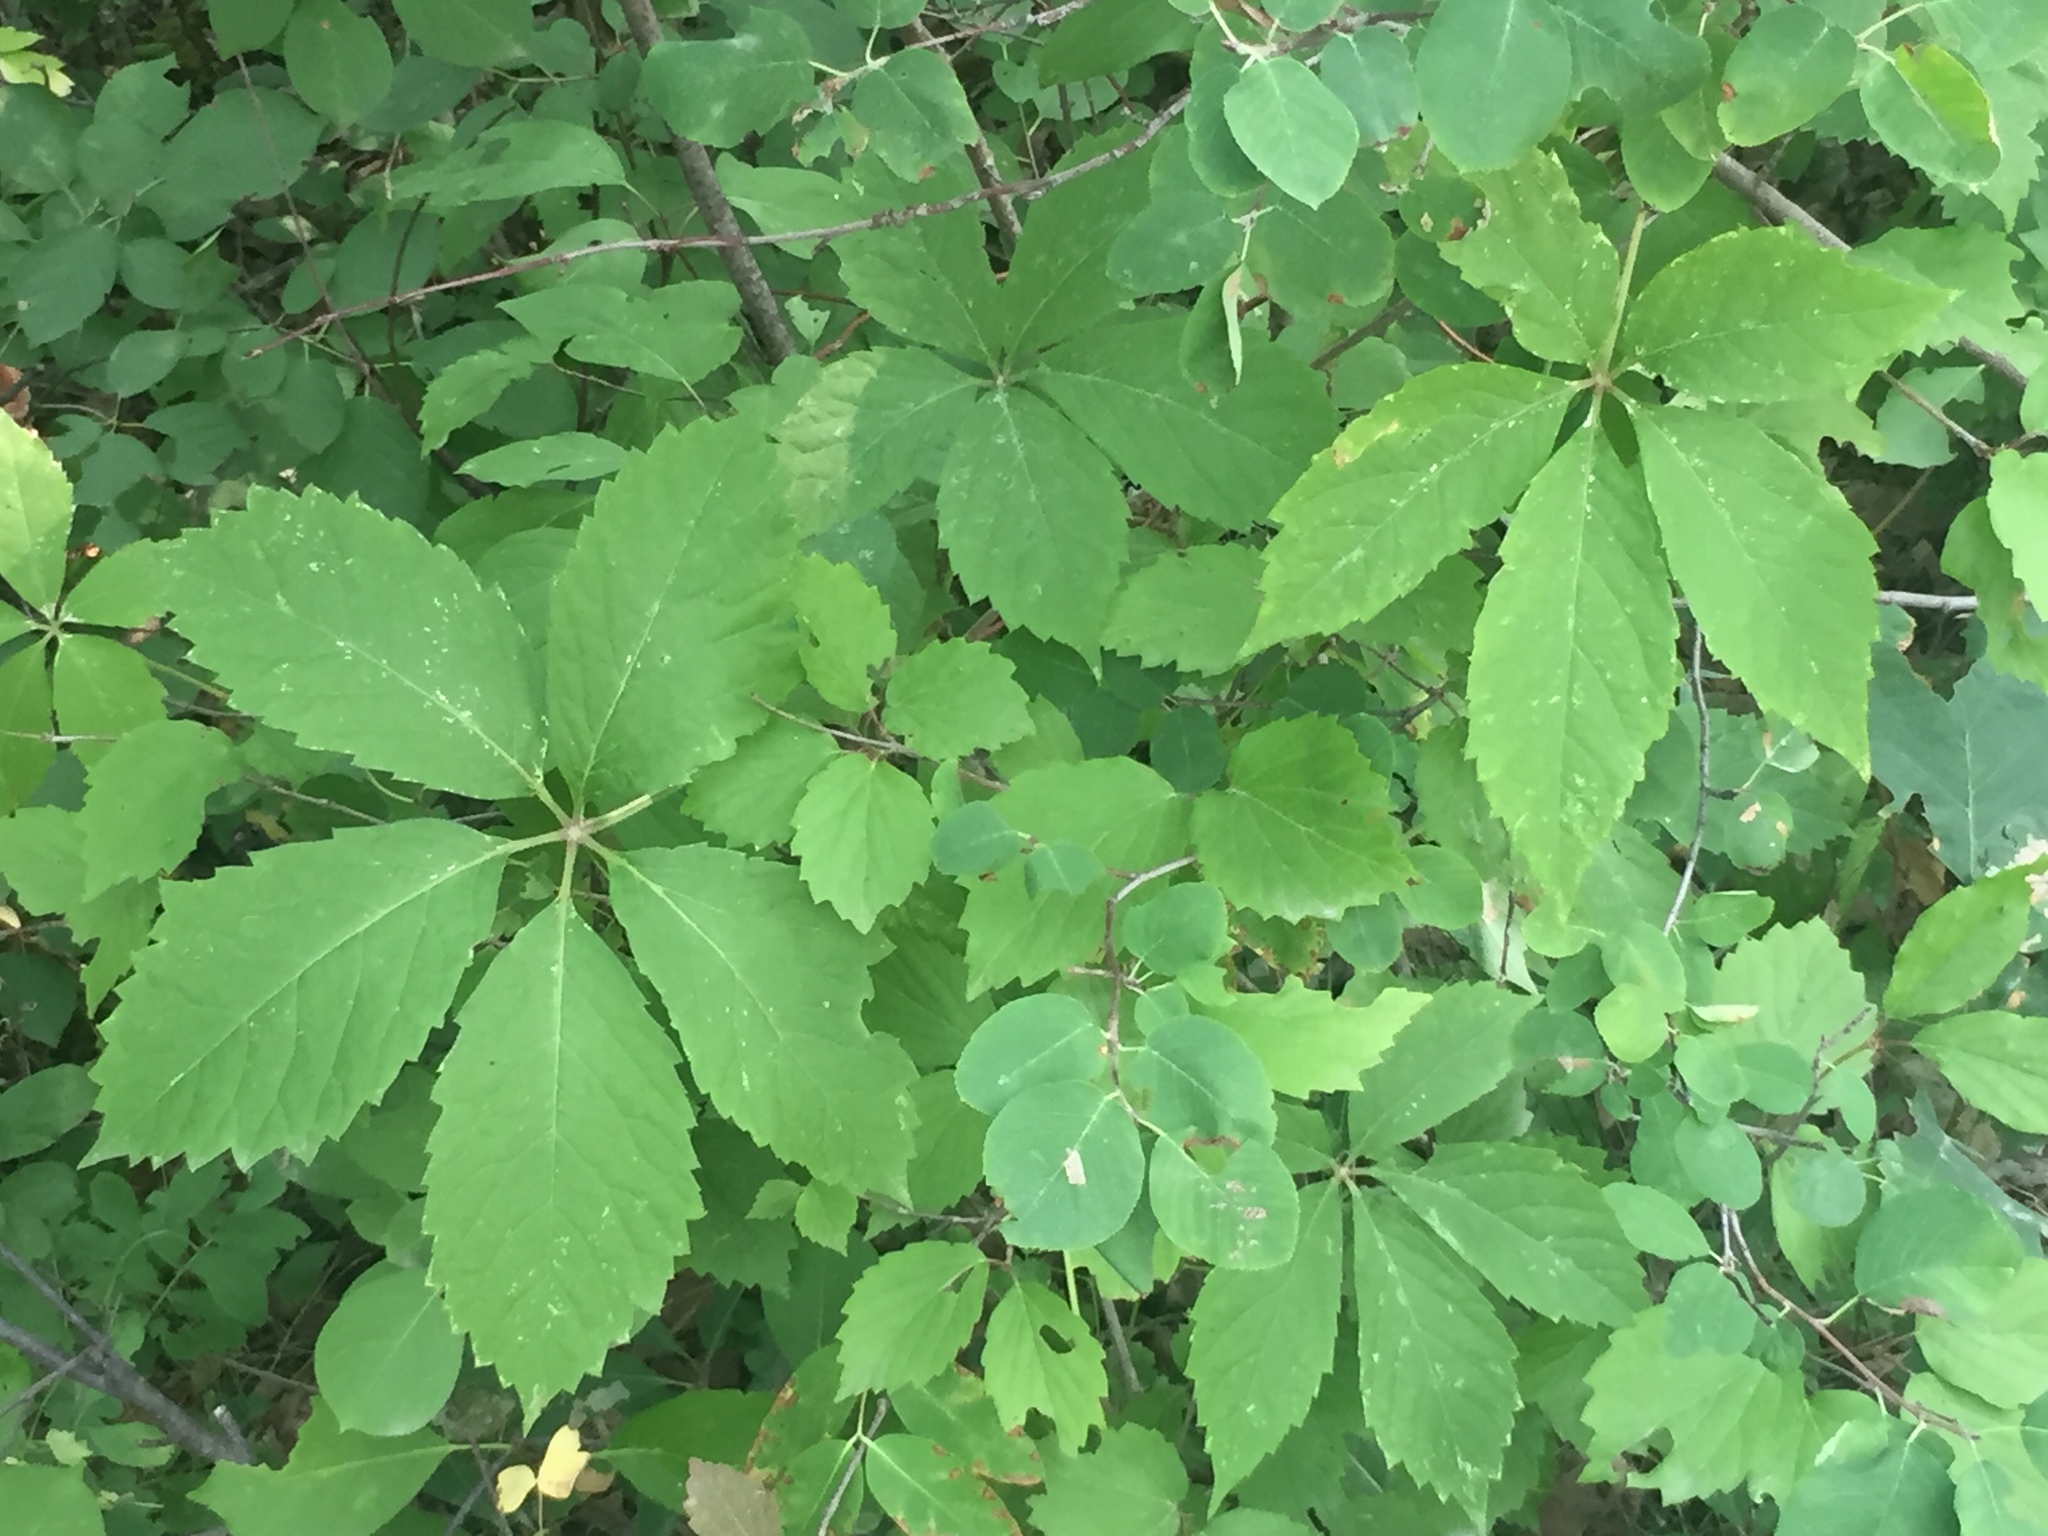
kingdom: Plantae
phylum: Tracheophyta
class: Magnoliopsida
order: Vitales
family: Vitaceae
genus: Parthenocissus
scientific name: Parthenocissus quinquefolia
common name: Virginia-creeper
